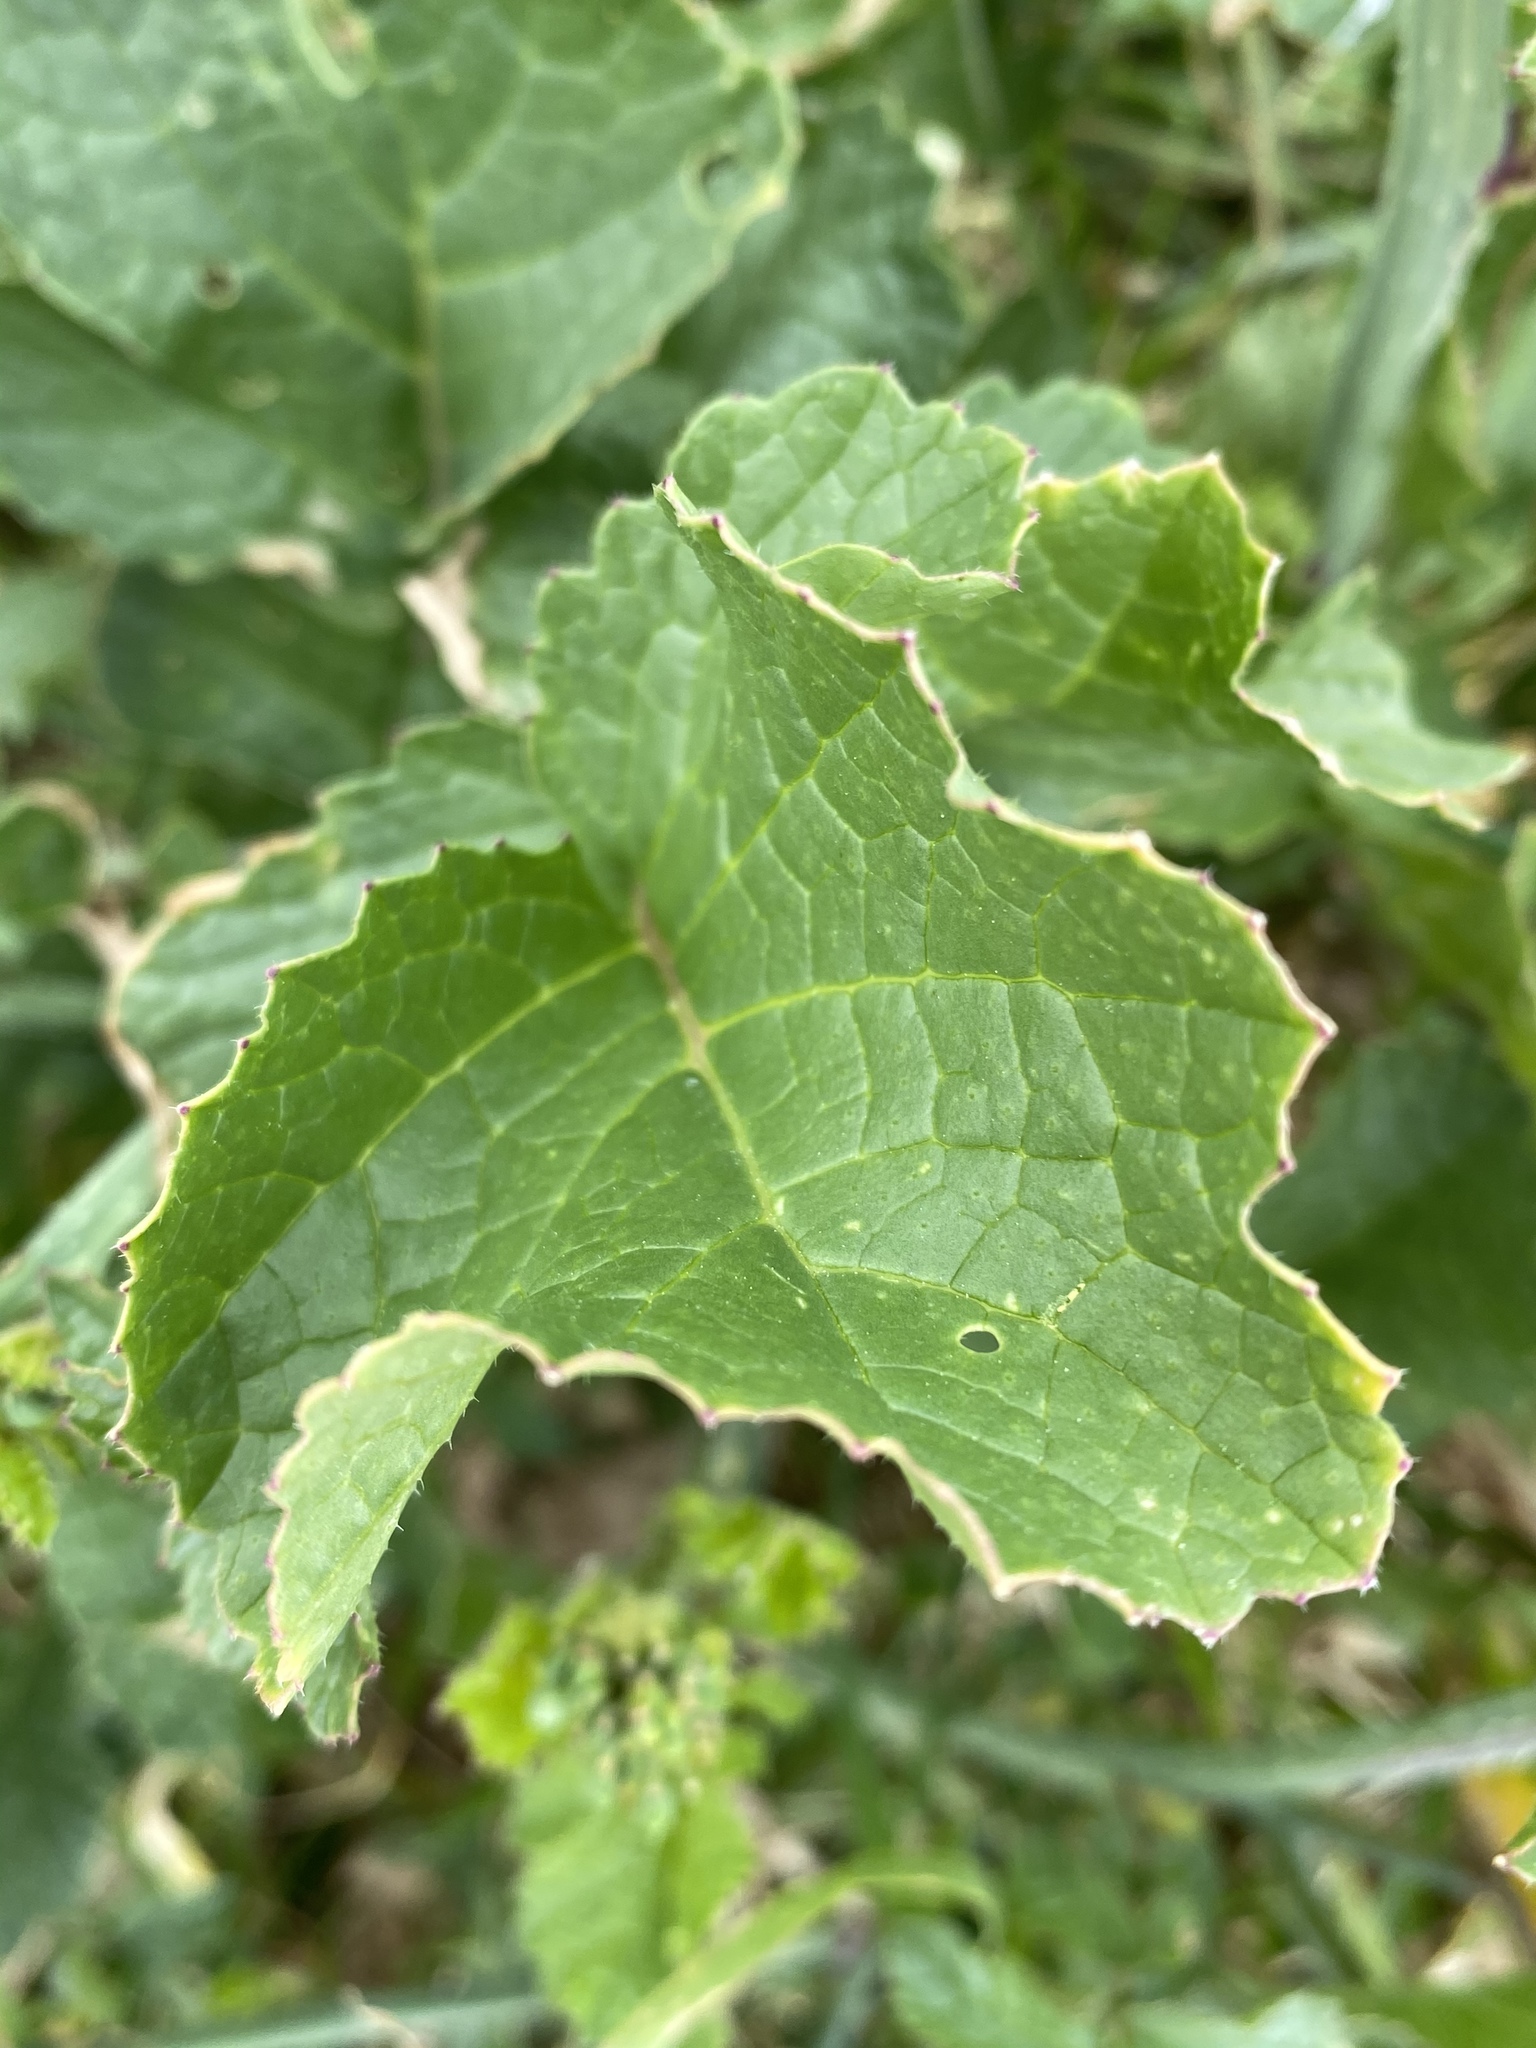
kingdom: Plantae
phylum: Tracheophyta
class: Magnoliopsida
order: Brassicales
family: Brassicaceae
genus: Raphanus
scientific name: Raphanus sativus
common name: Cultivated radish
